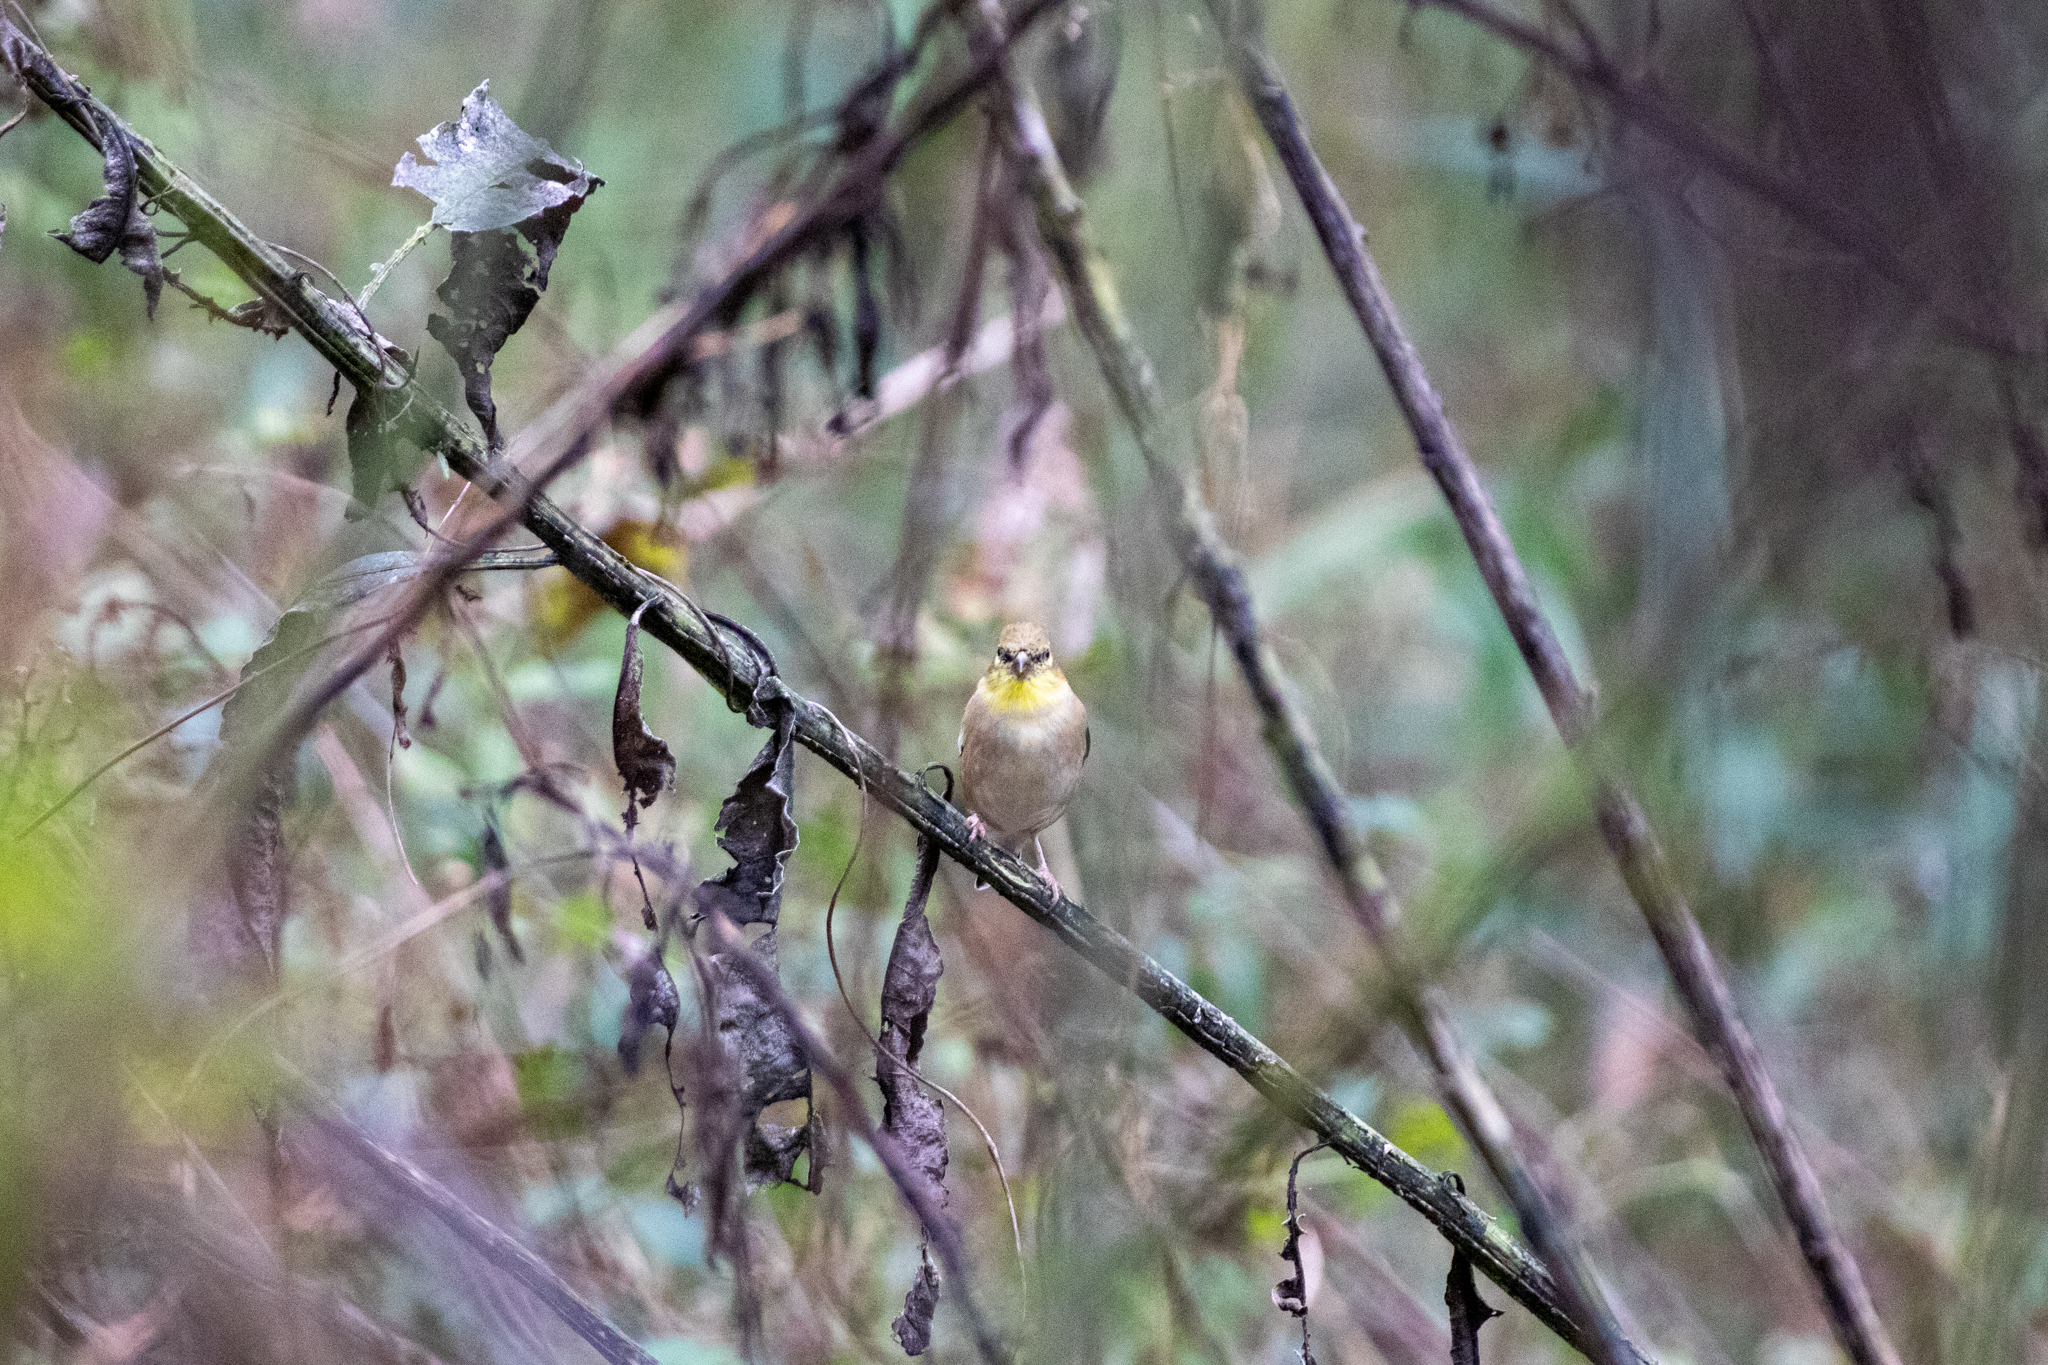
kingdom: Animalia
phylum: Chordata
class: Aves
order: Passeriformes
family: Fringillidae
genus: Spinus
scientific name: Spinus tristis
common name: American goldfinch
